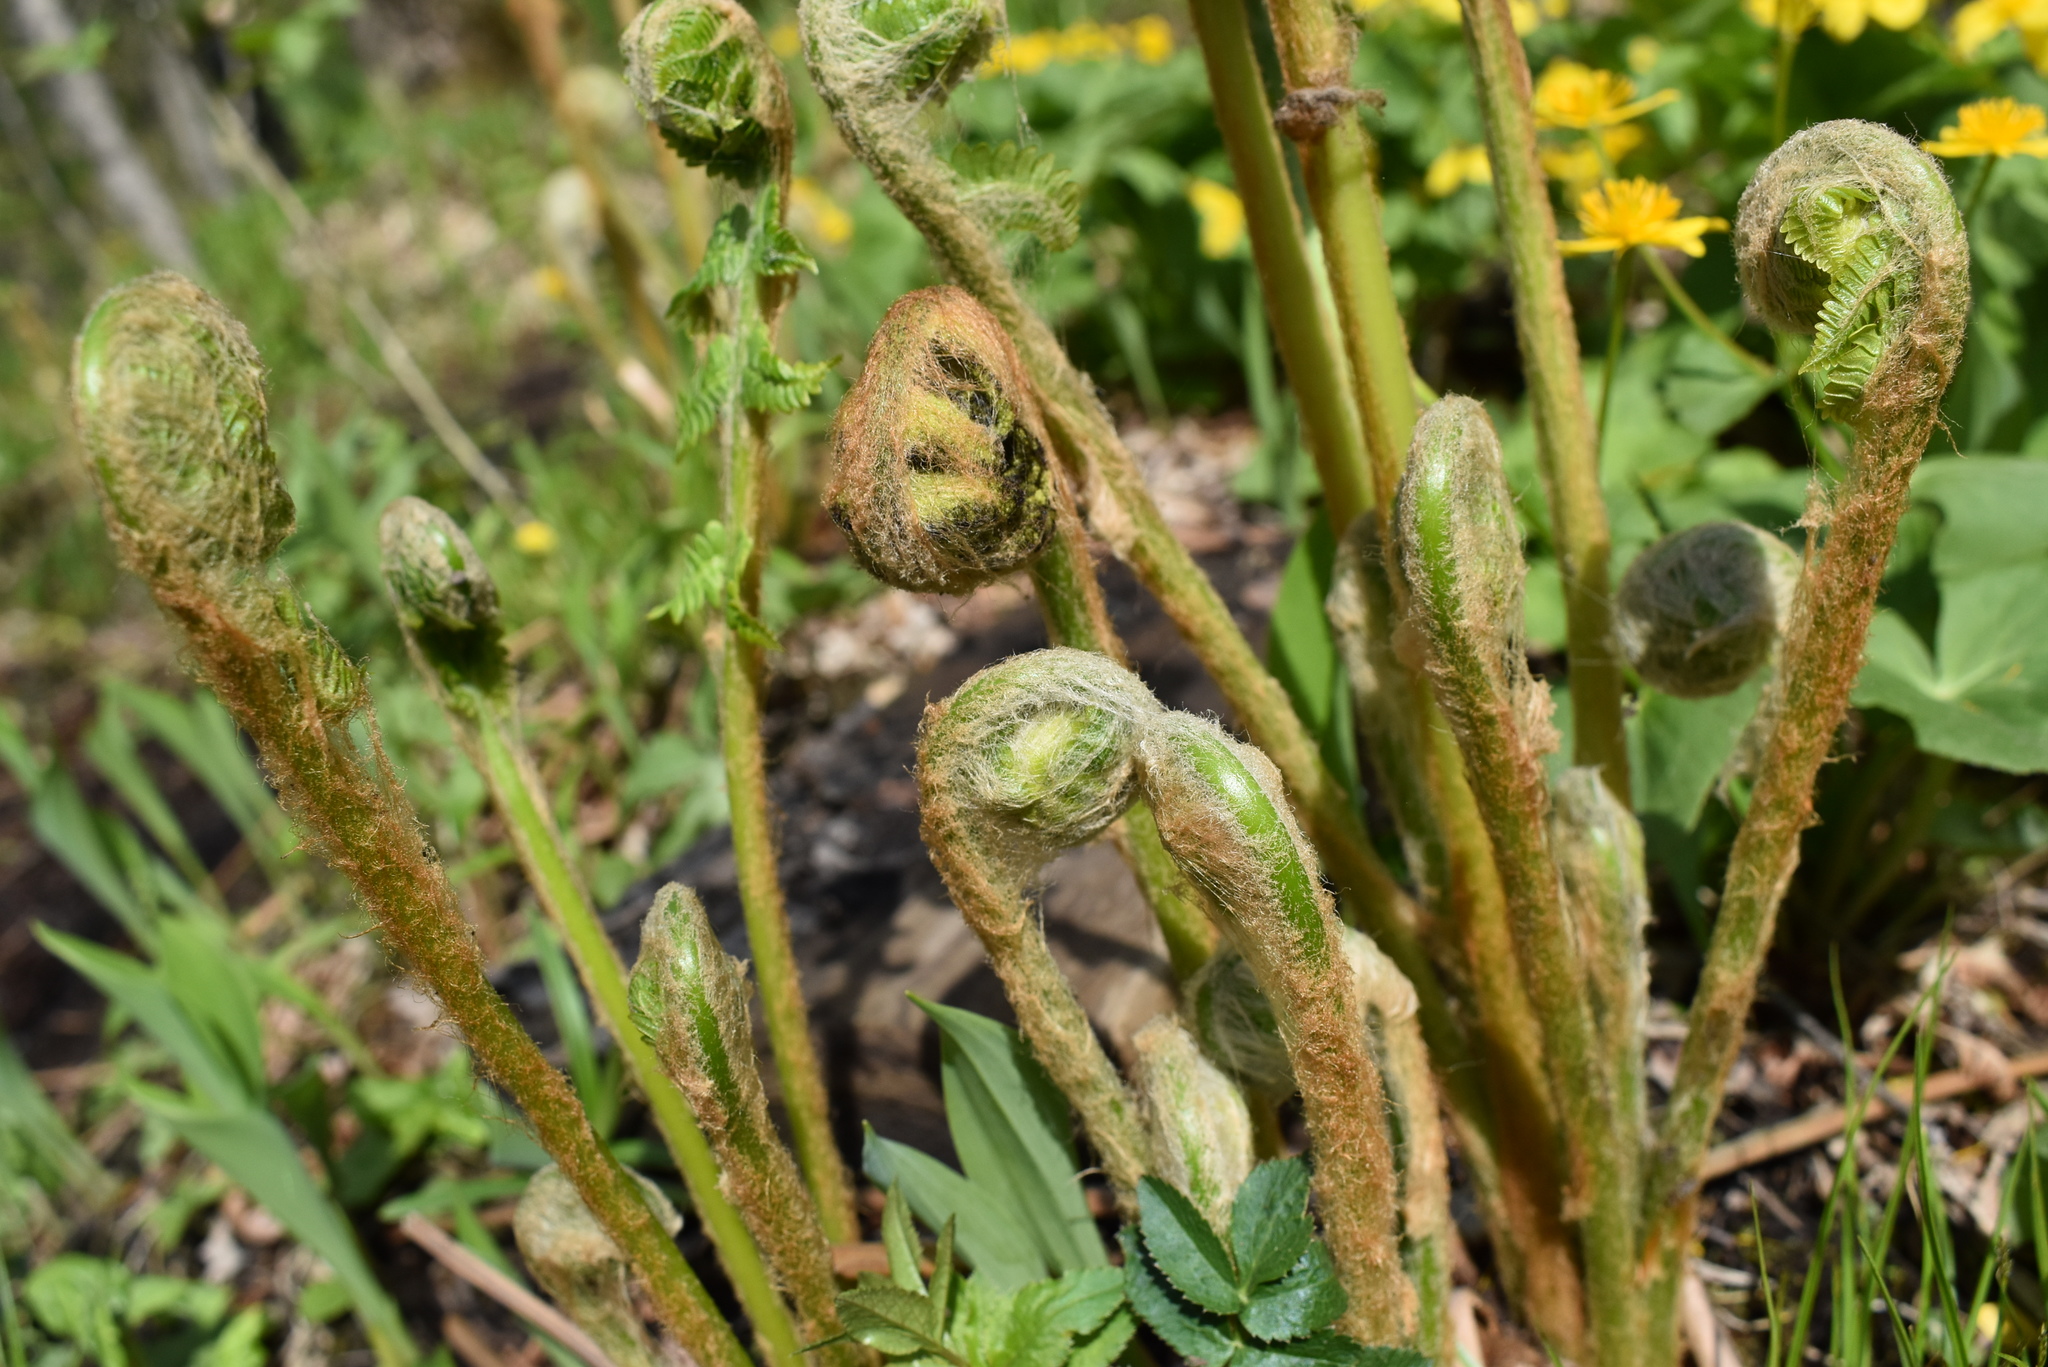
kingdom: Plantae
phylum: Tracheophyta
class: Polypodiopsida
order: Osmundales
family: Osmundaceae
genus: Osmundastrum
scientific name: Osmundastrum cinnamomeum
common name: Cinnamon fern
